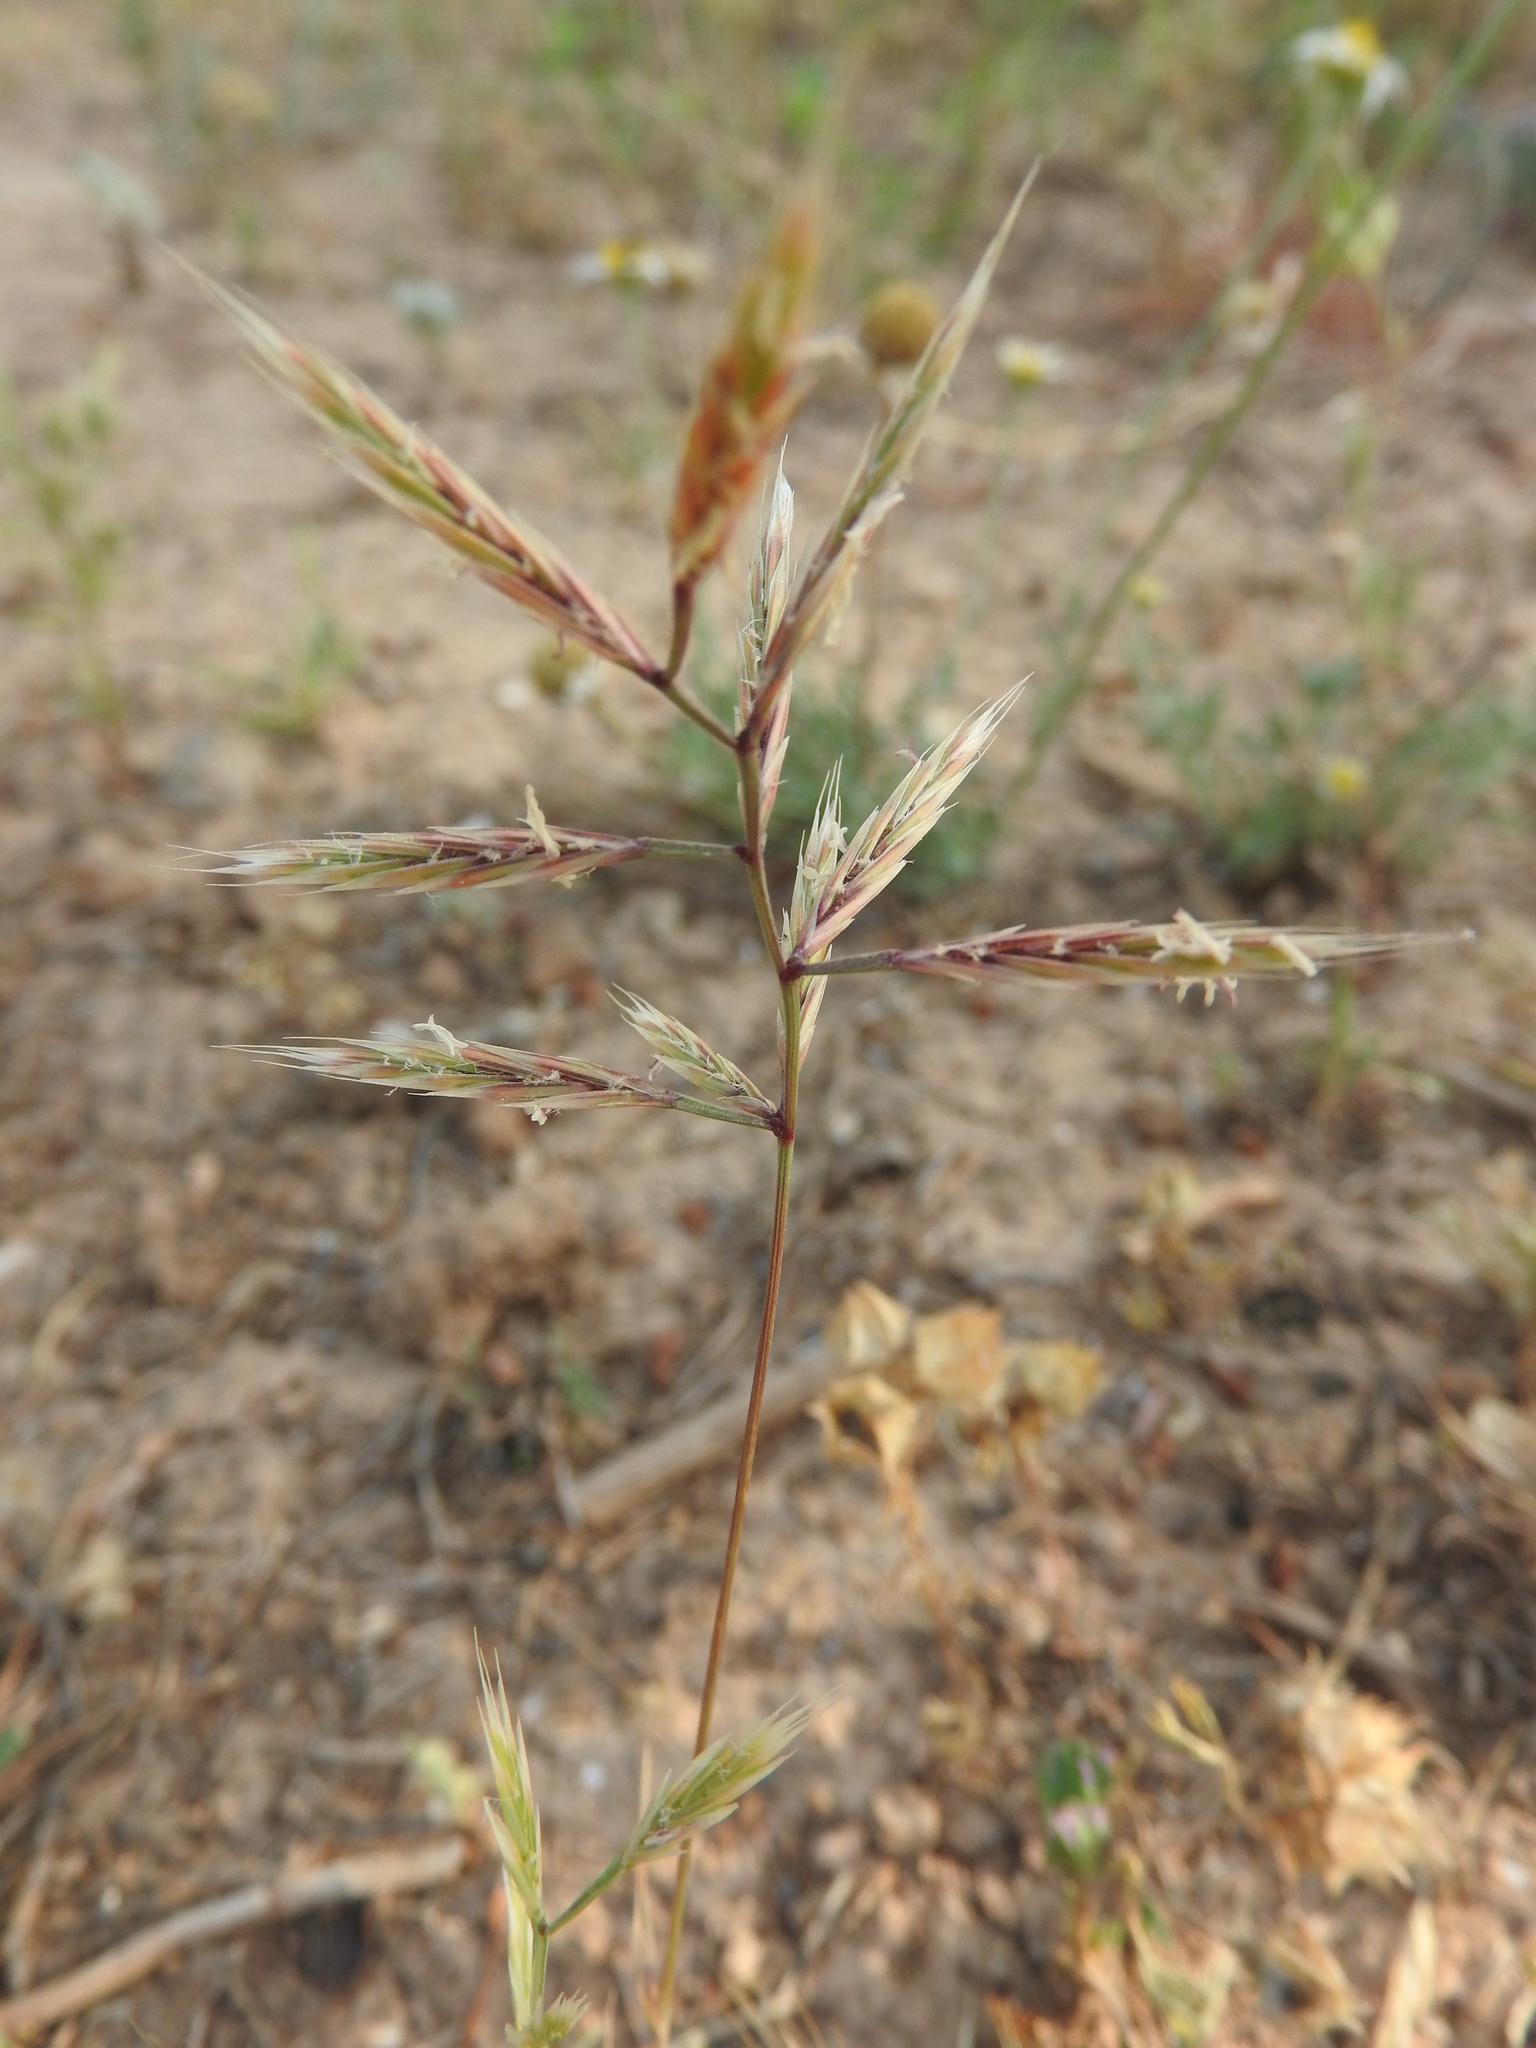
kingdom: Plantae
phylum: Tracheophyta
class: Liliopsida
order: Poales
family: Poaceae
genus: Vulpiella
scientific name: Vulpiella stipoides
